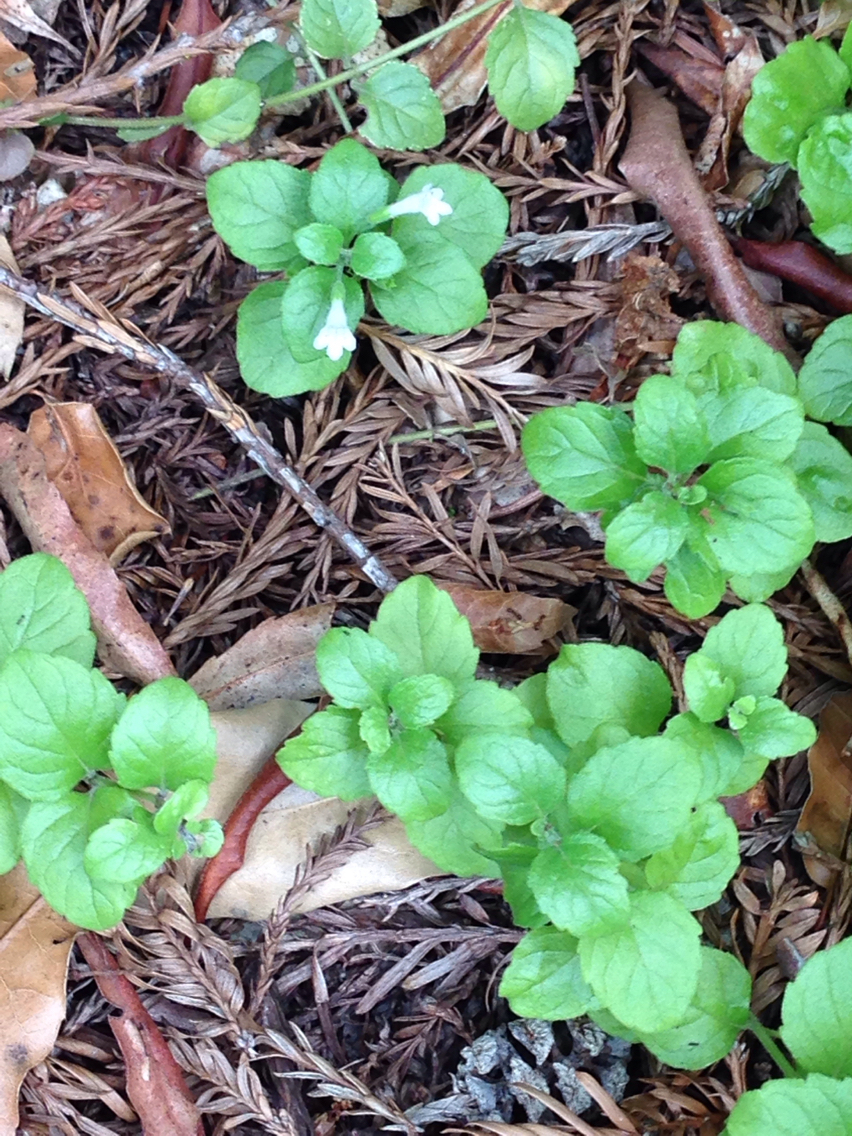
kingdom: Plantae
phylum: Tracheophyta
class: Magnoliopsida
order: Lamiales
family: Lamiaceae
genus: Micromeria
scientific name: Micromeria douglasii
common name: Yerba buena
